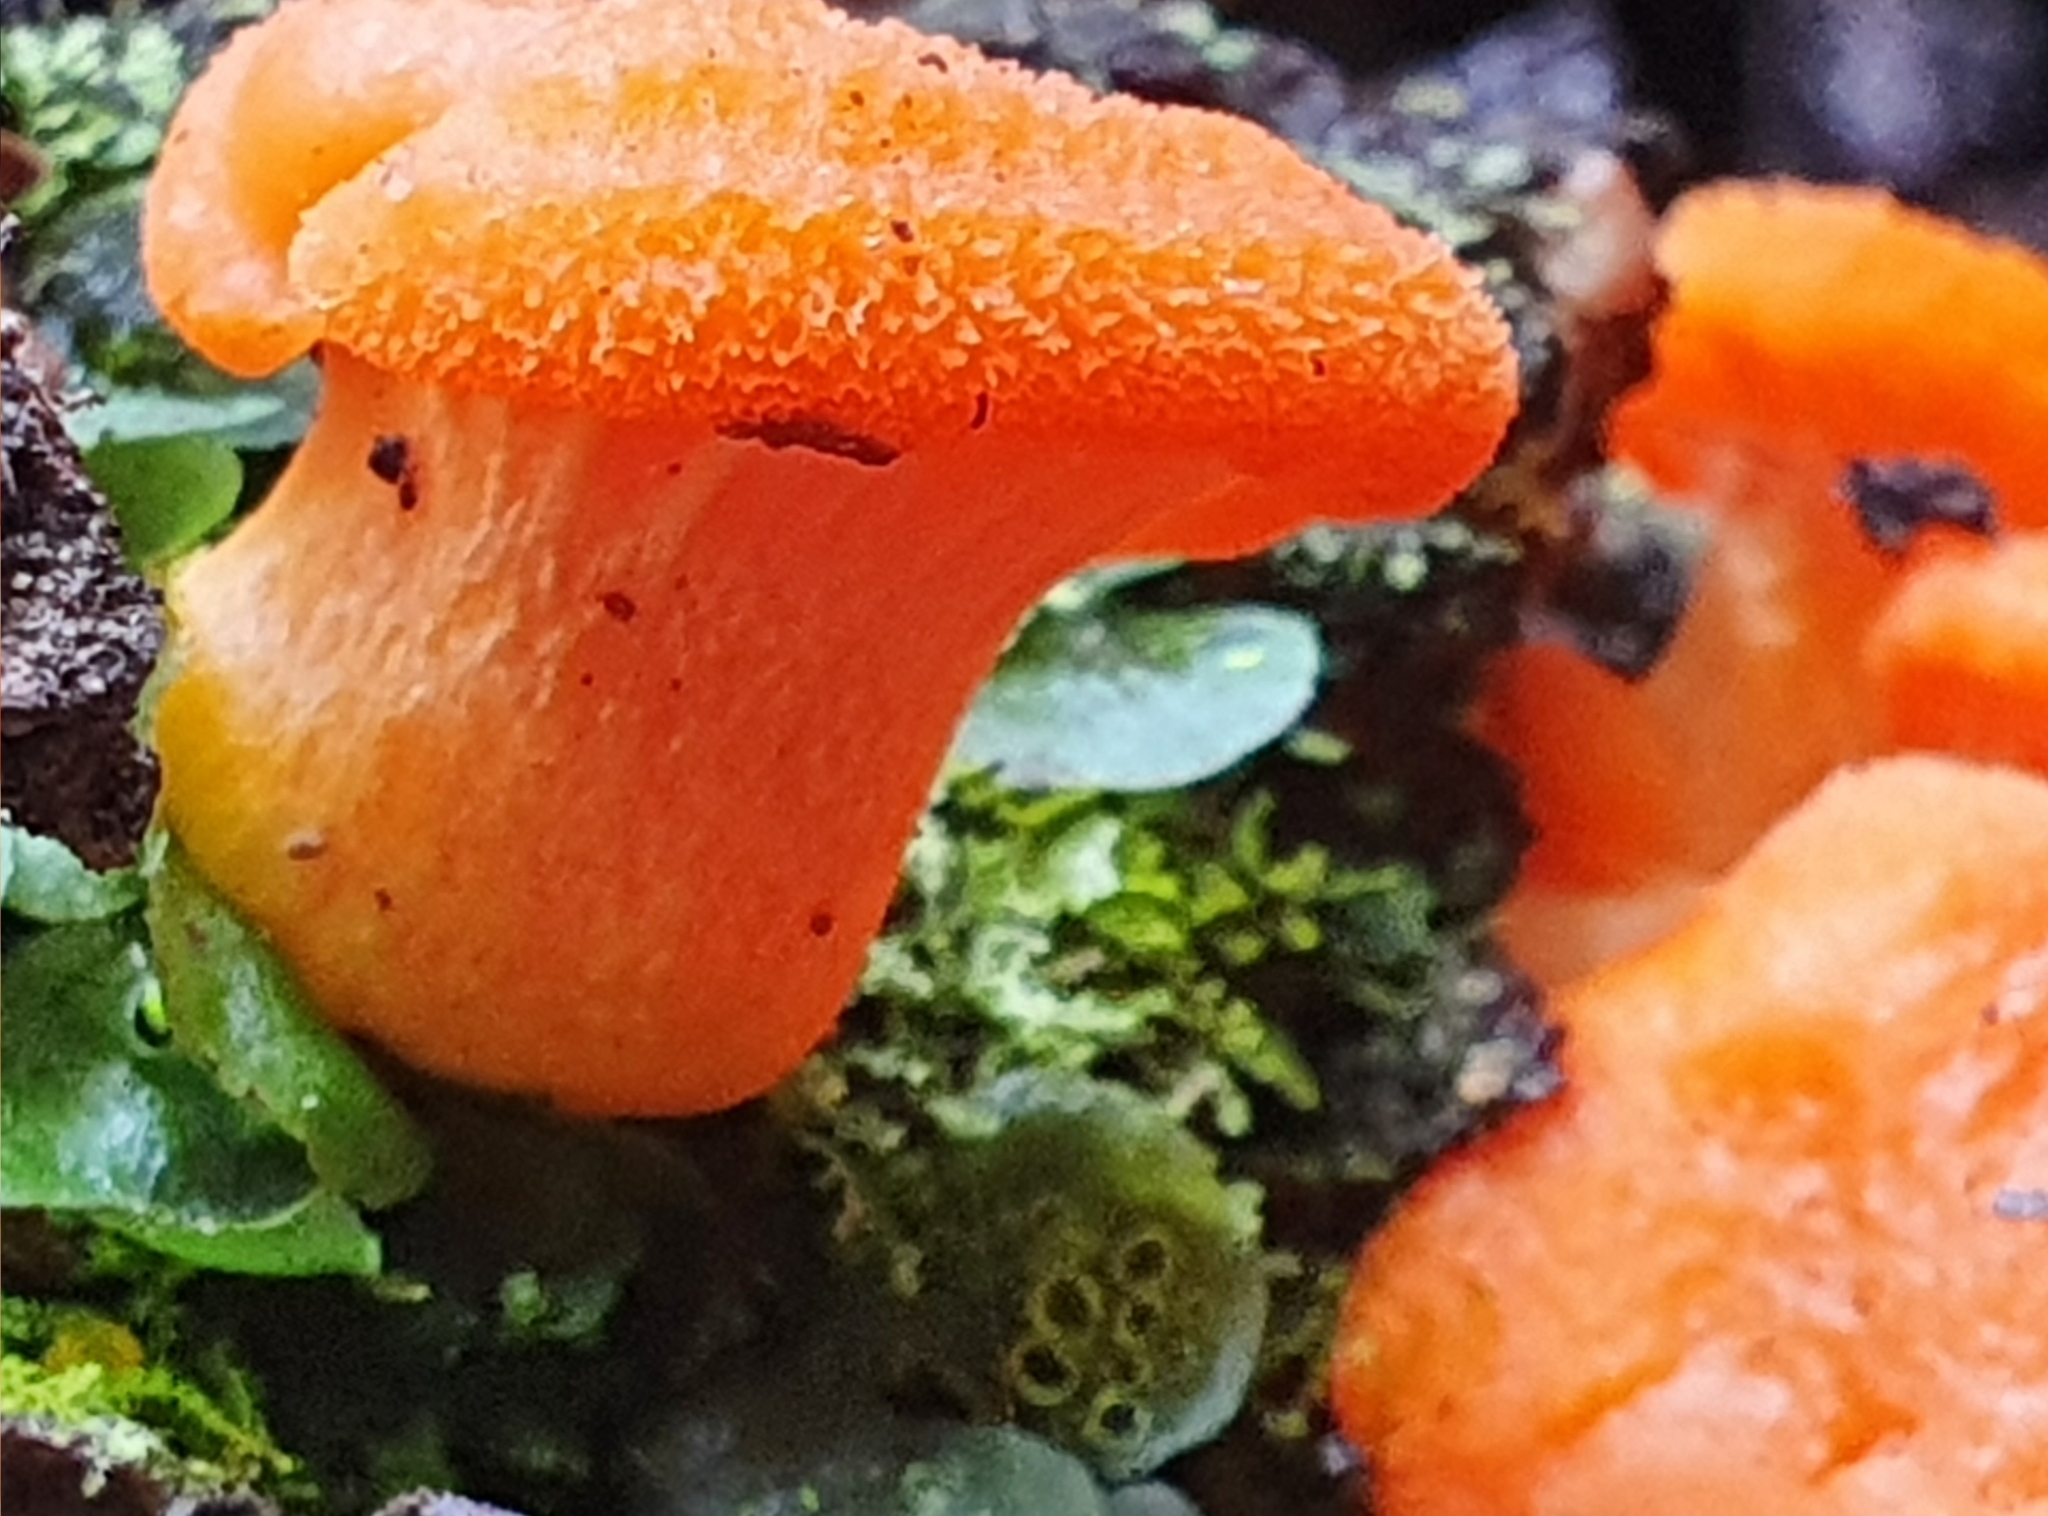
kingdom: Fungi
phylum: Basidiomycota
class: Agaricomycetes
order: Cantharellales
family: Hydnaceae
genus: Cantharellus
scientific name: Cantharellus
